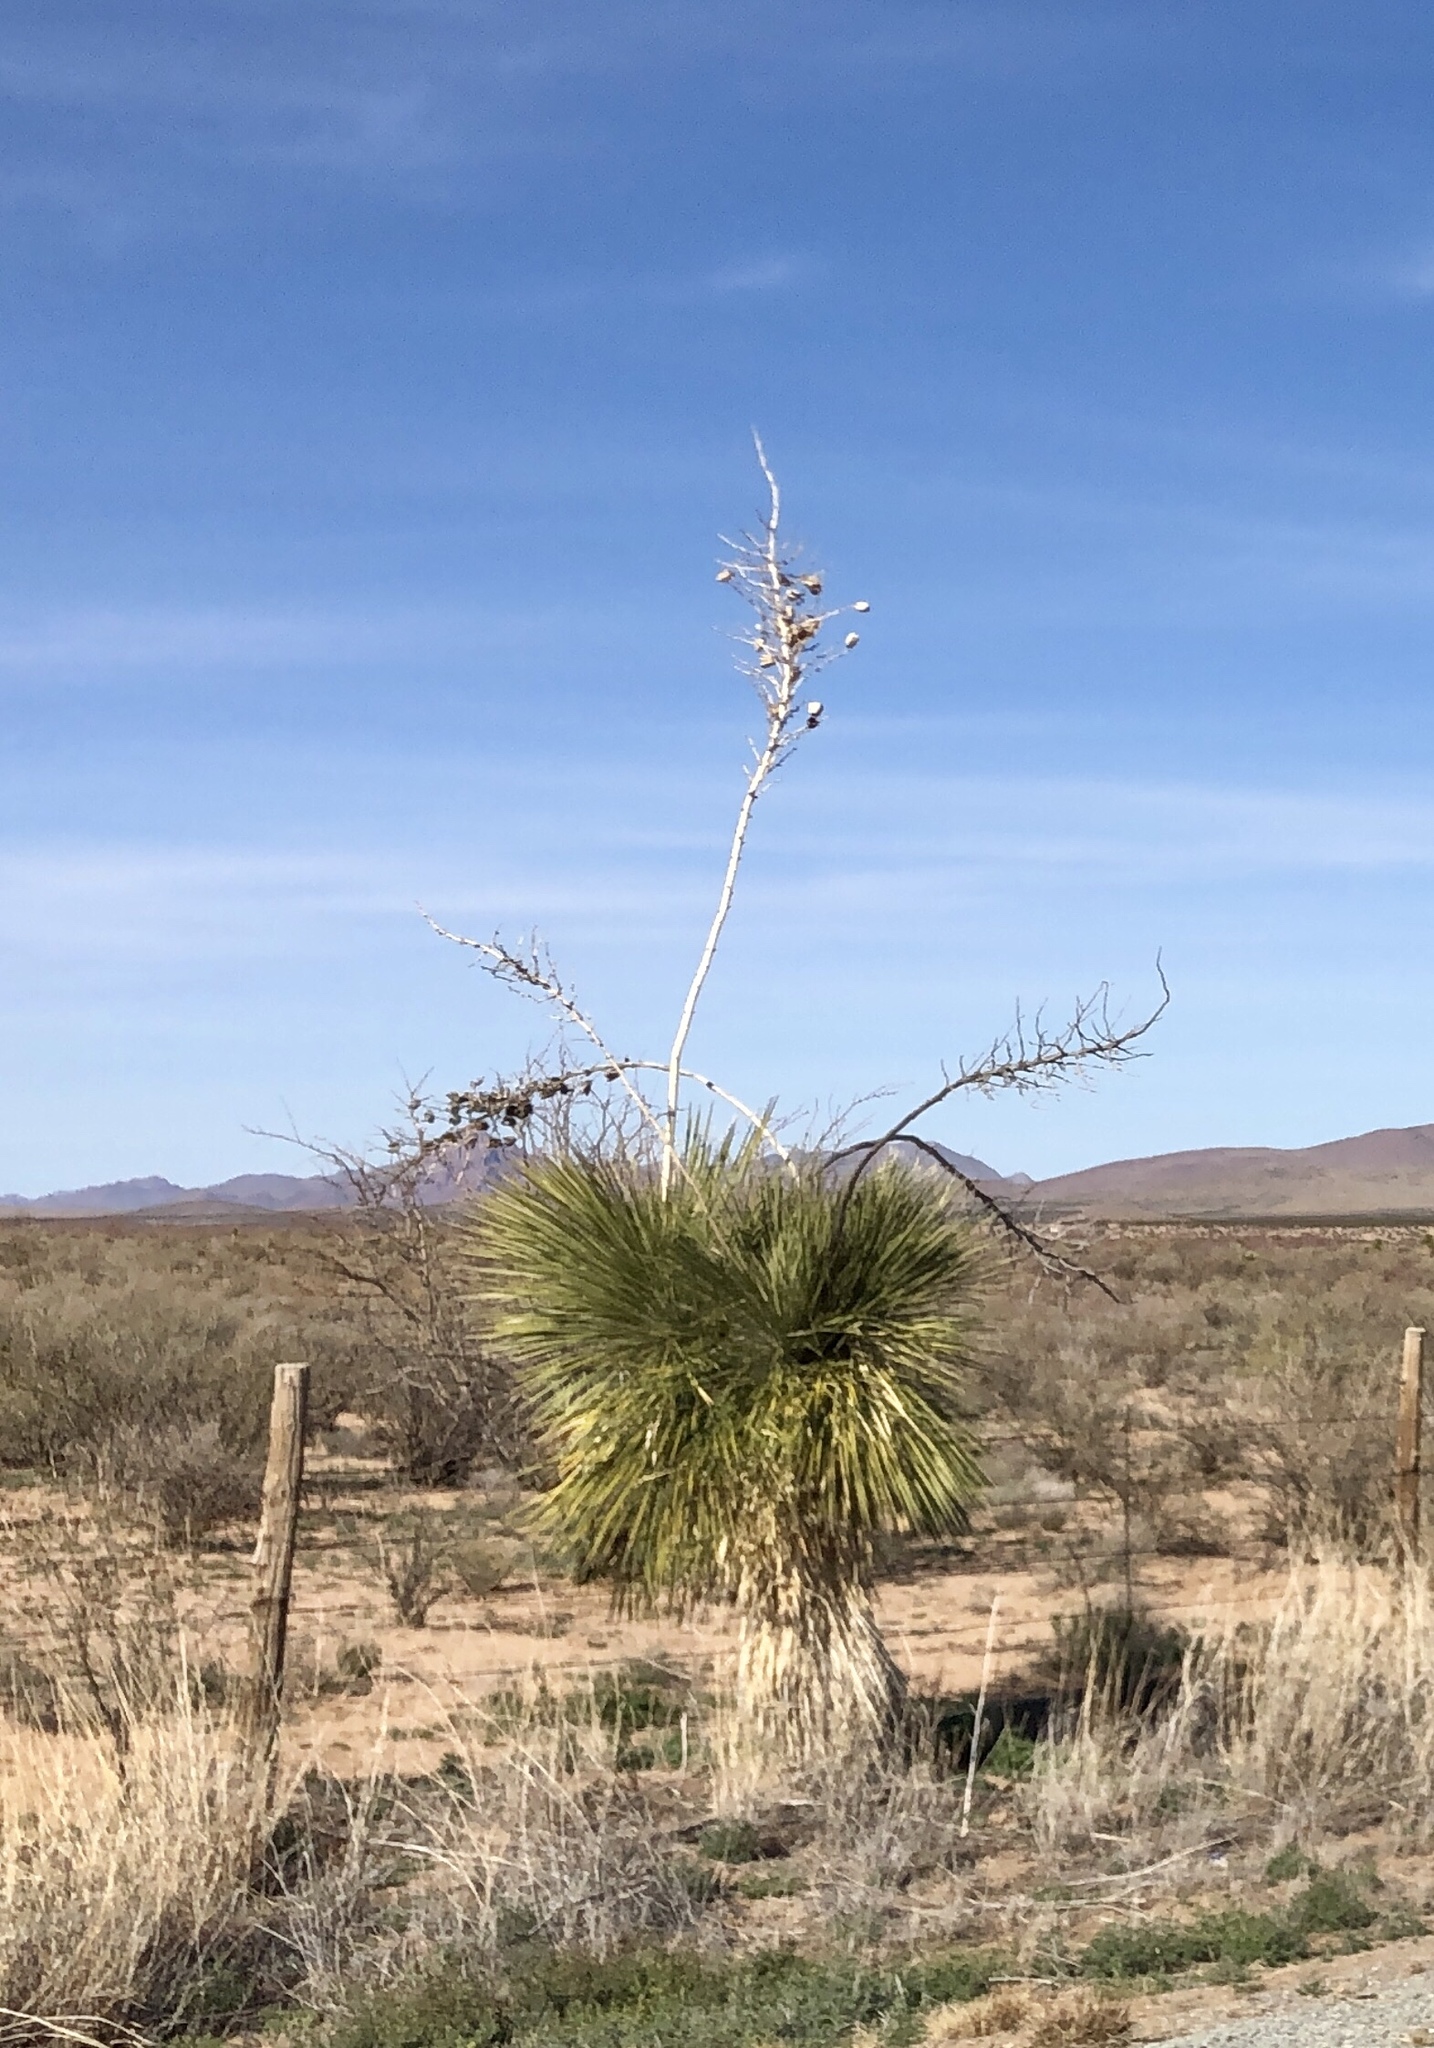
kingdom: Plantae
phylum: Tracheophyta
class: Liliopsida
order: Asparagales
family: Asparagaceae
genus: Yucca
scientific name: Yucca elata
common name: Palmella
